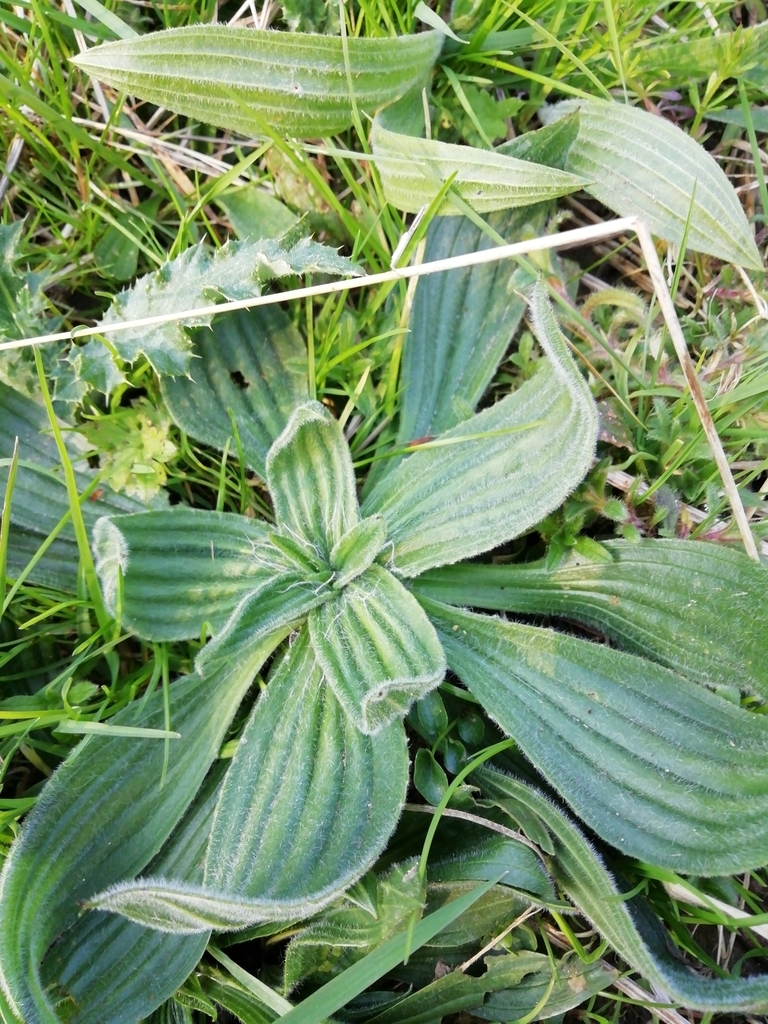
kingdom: Plantae
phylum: Tracheophyta
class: Magnoliopsida
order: Lamiales
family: Plantaginaceae
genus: Plantago
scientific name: Plantago lanceolata
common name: Ribwort plantain
